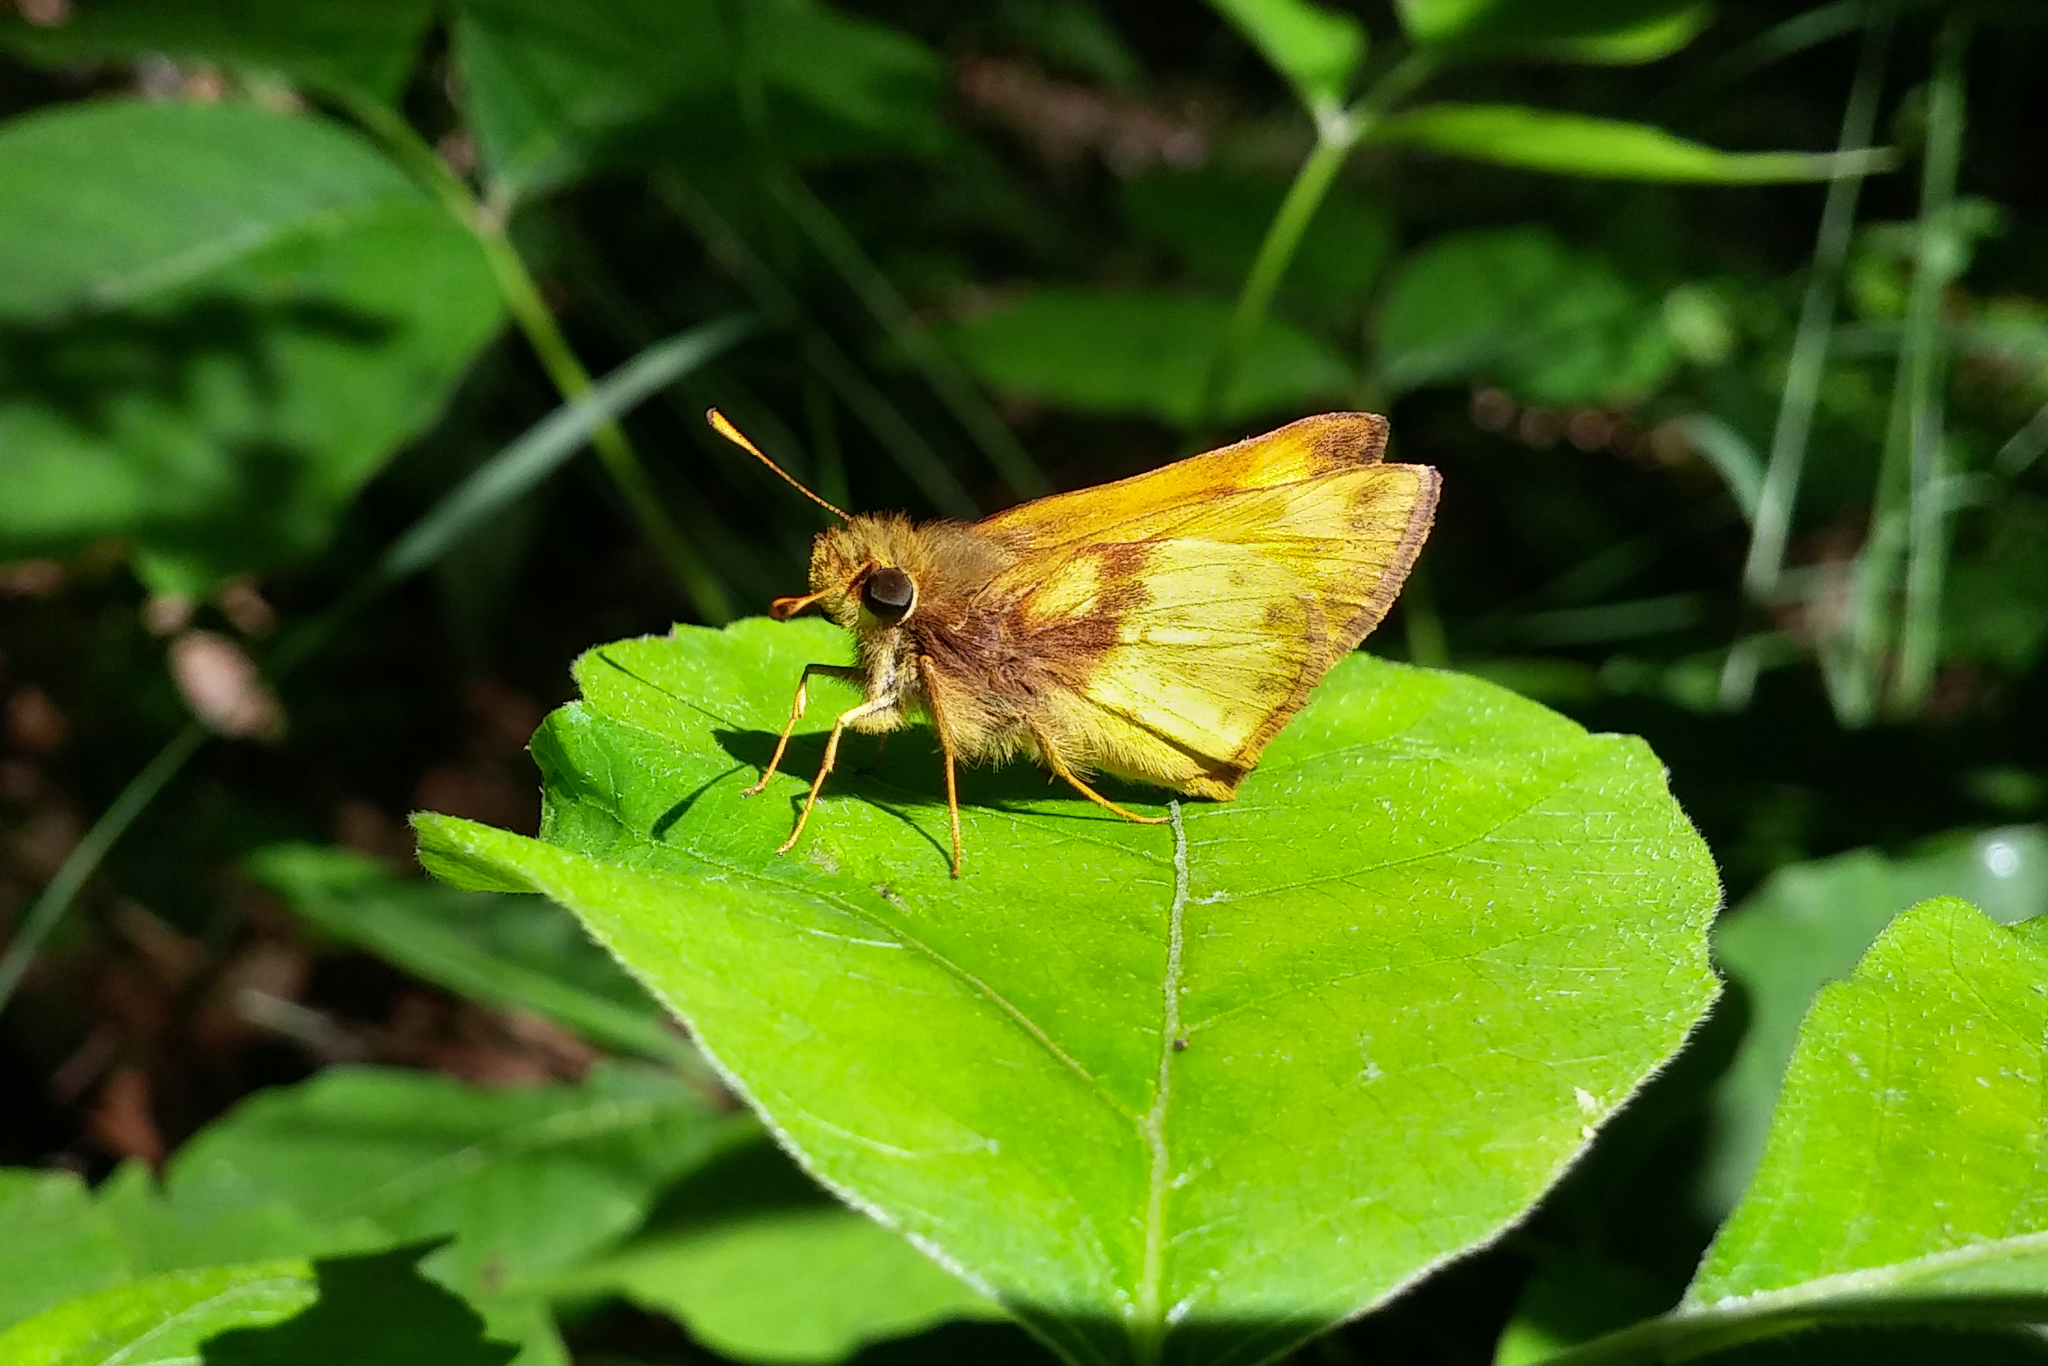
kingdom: Animalia
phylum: Arthropoda
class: Insecta
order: Lepidoptera
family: Hesperiidae
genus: Lon
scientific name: Lon zabulon
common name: Zabulon skipper
